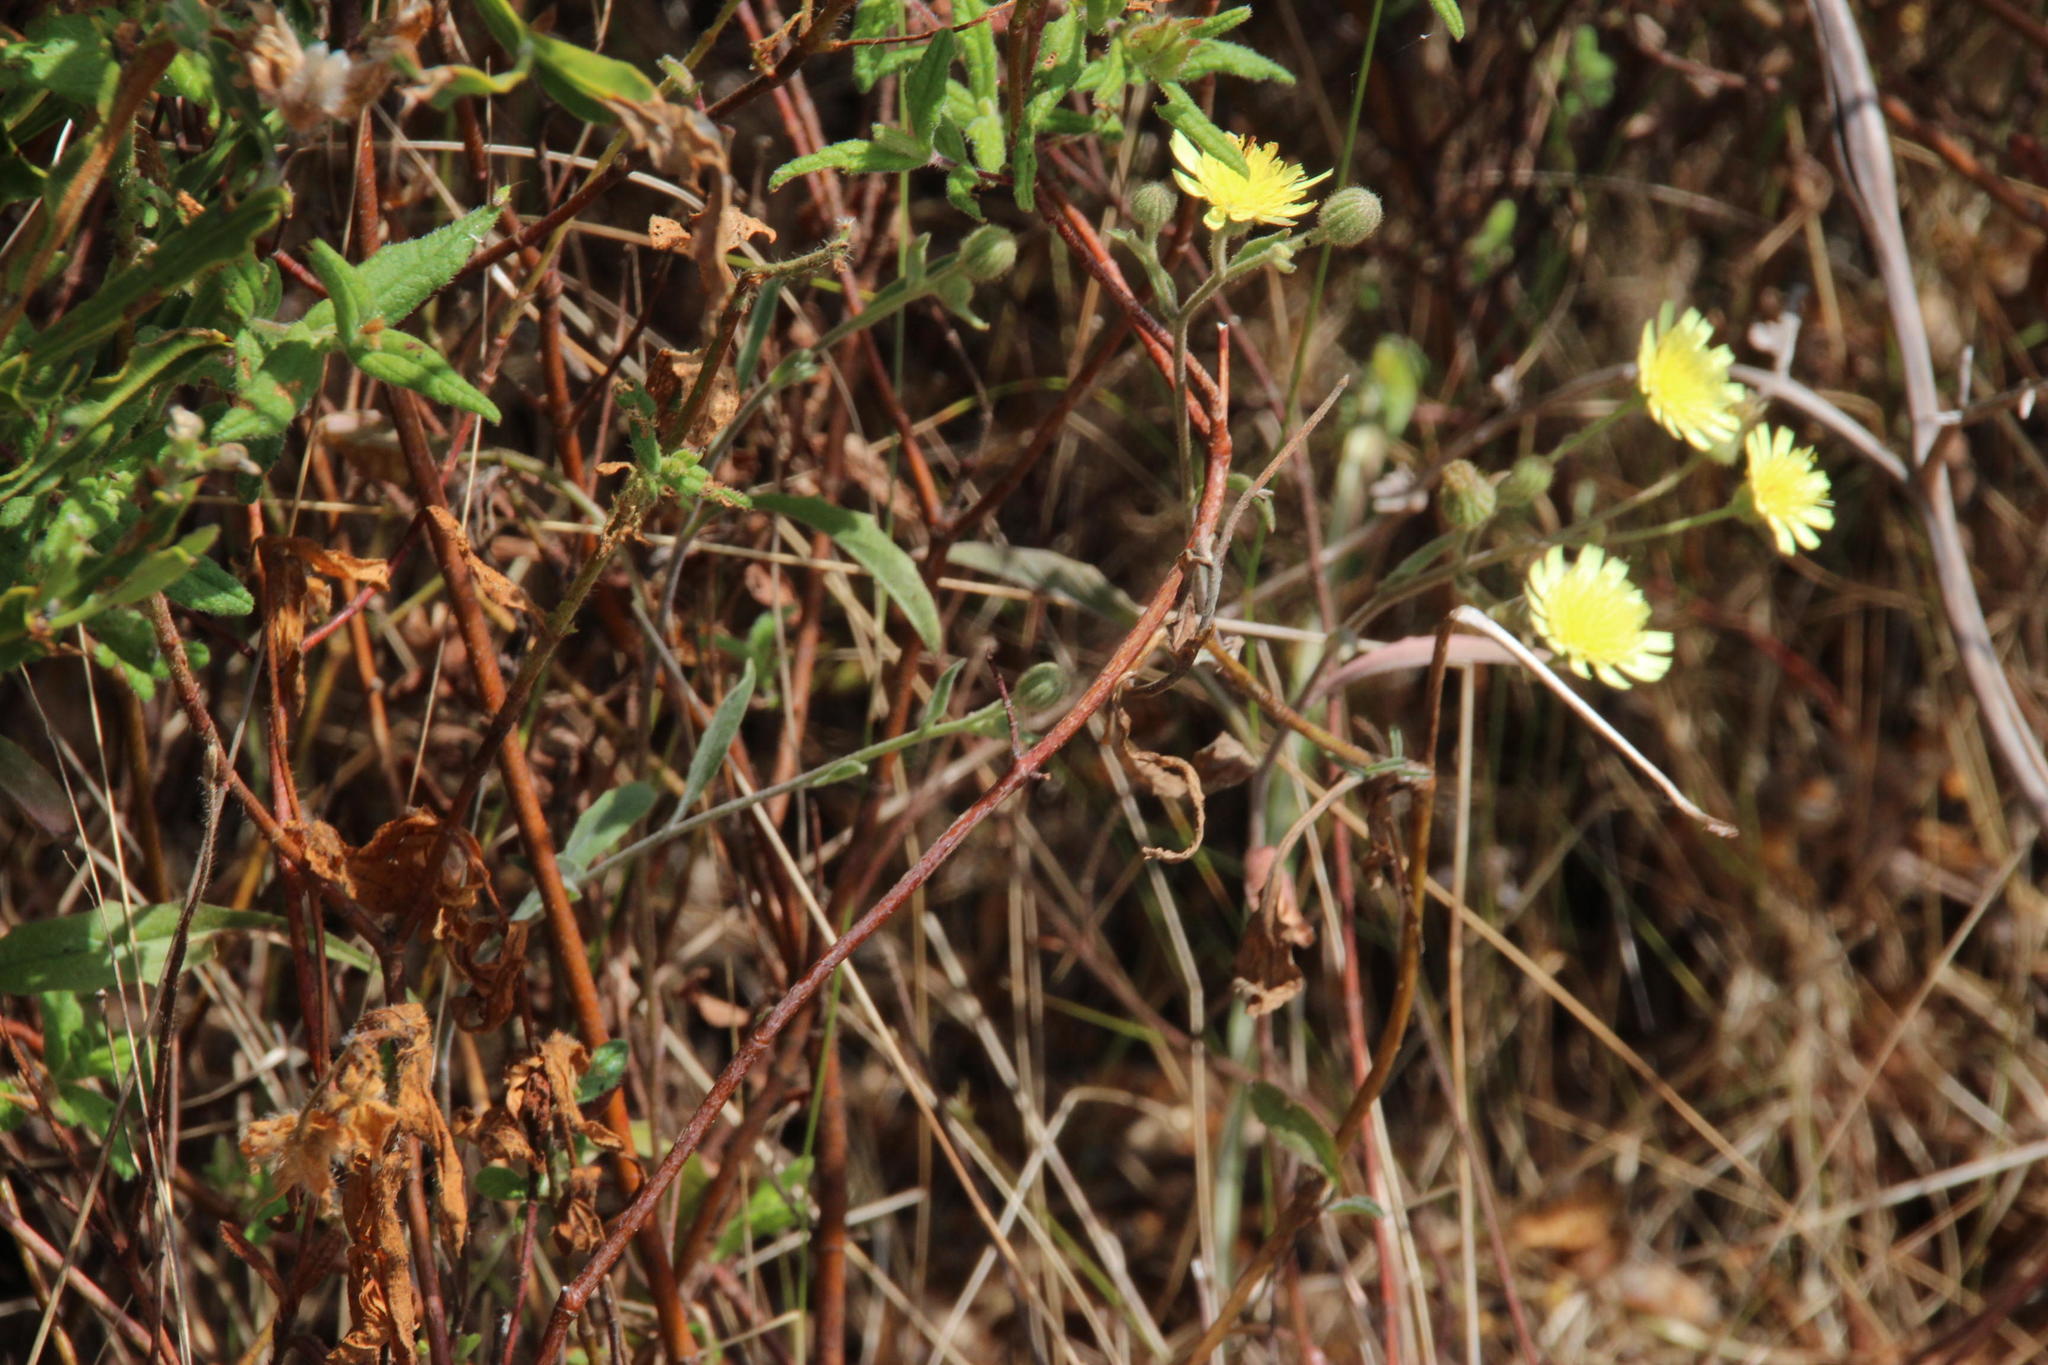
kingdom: Plantae
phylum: Tracheophyta
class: Magnoliopsida
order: Asterales
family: Asteraceae
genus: Andryala
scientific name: Andryala integrifolia
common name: Common andryala
